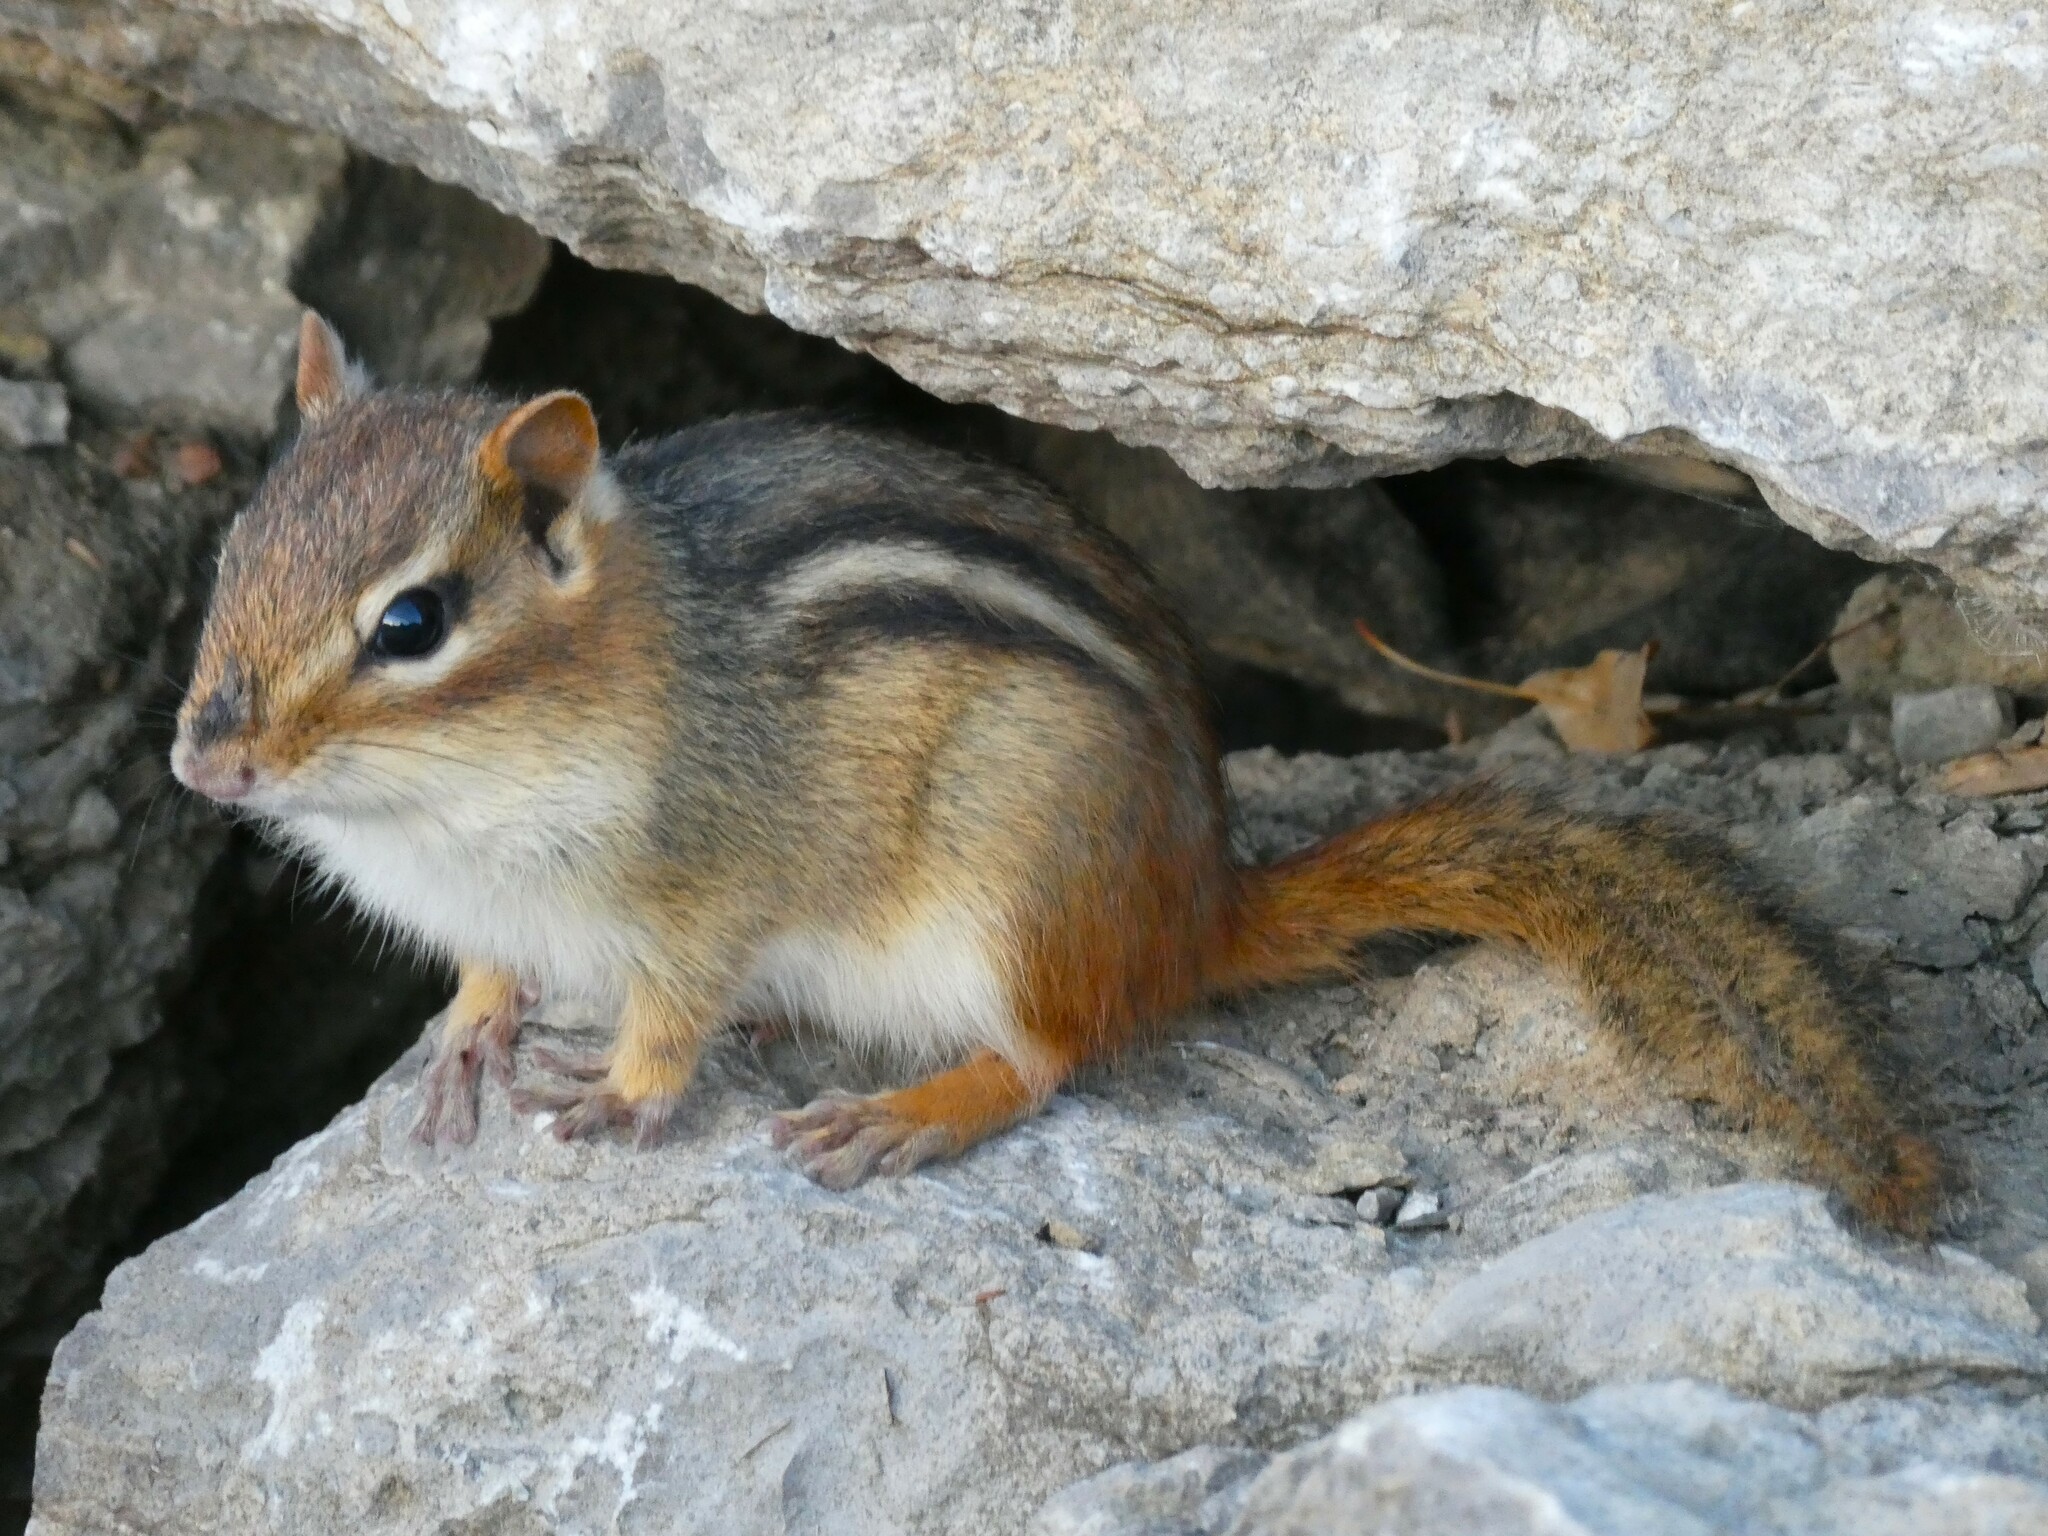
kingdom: Animalia
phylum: Chordata
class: Mammalia
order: Rodentia
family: Sciuridae
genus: Tamias
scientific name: Tamias striatus
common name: Eastern chipmunk
